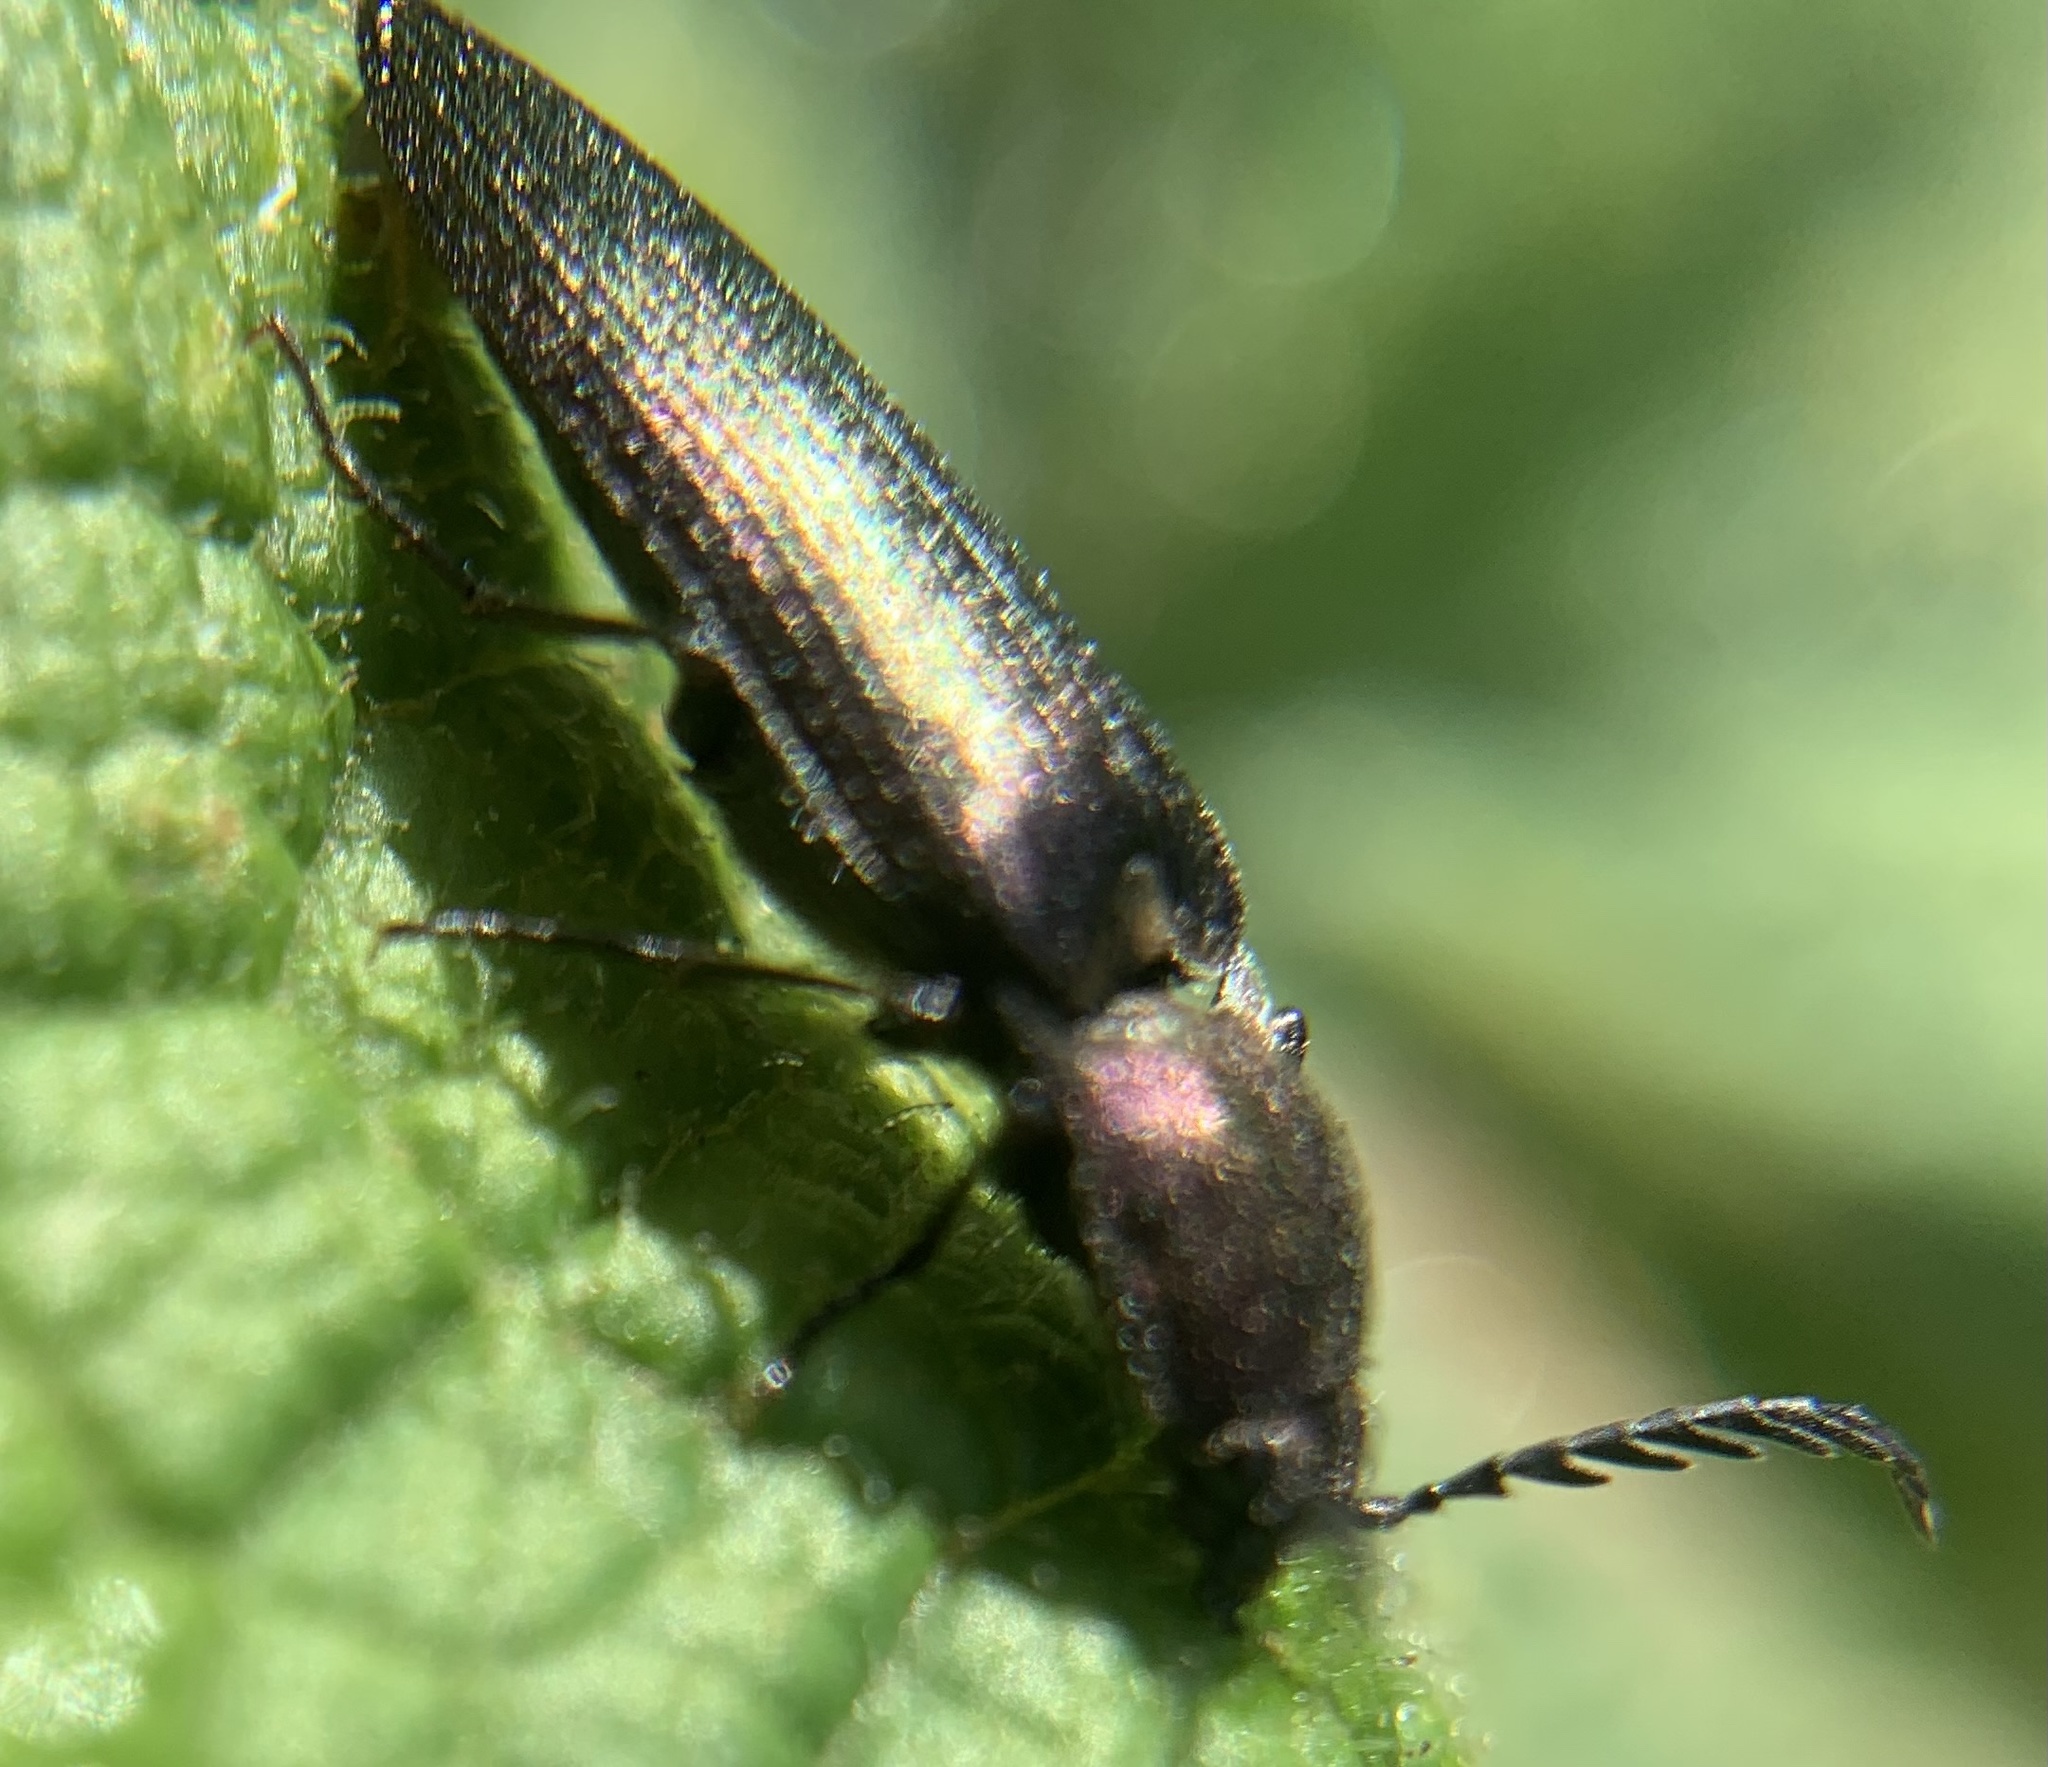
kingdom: Animalia
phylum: Arthropoda
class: Insecta
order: Coleoptera
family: Elateridae
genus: Ctenicera
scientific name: Ctenicera cuprea
